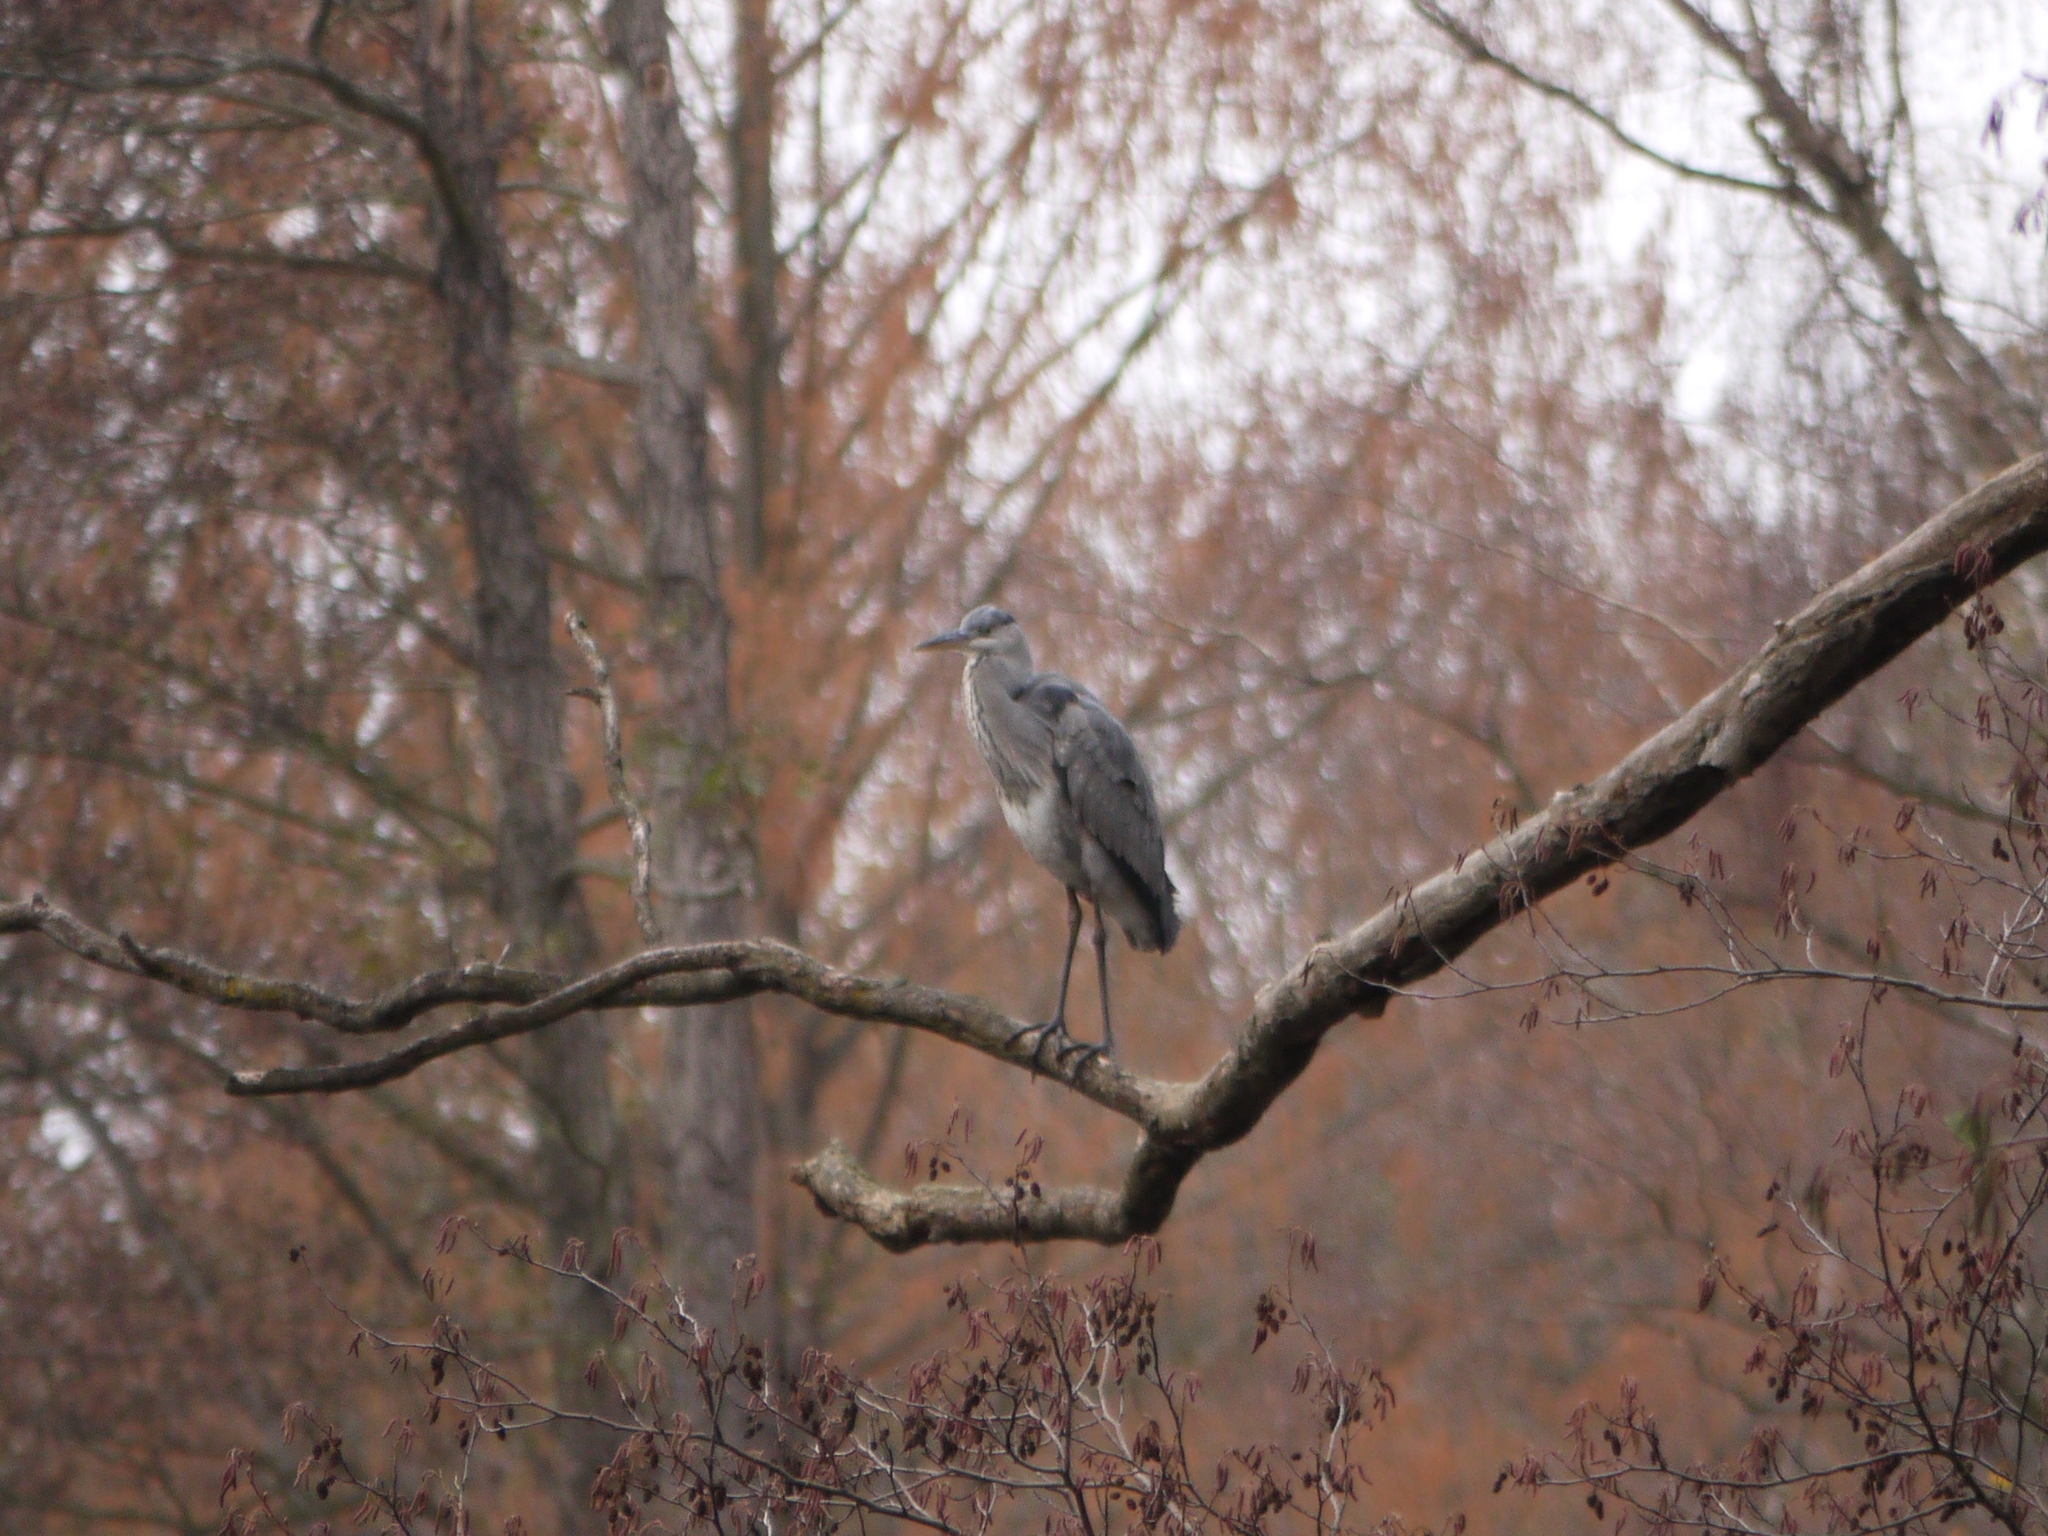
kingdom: Animalia
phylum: Chordata
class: Aves
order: Pelecaniformes
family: Ardeidae
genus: Ardea
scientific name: Ardea cinerea
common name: Grey heron
